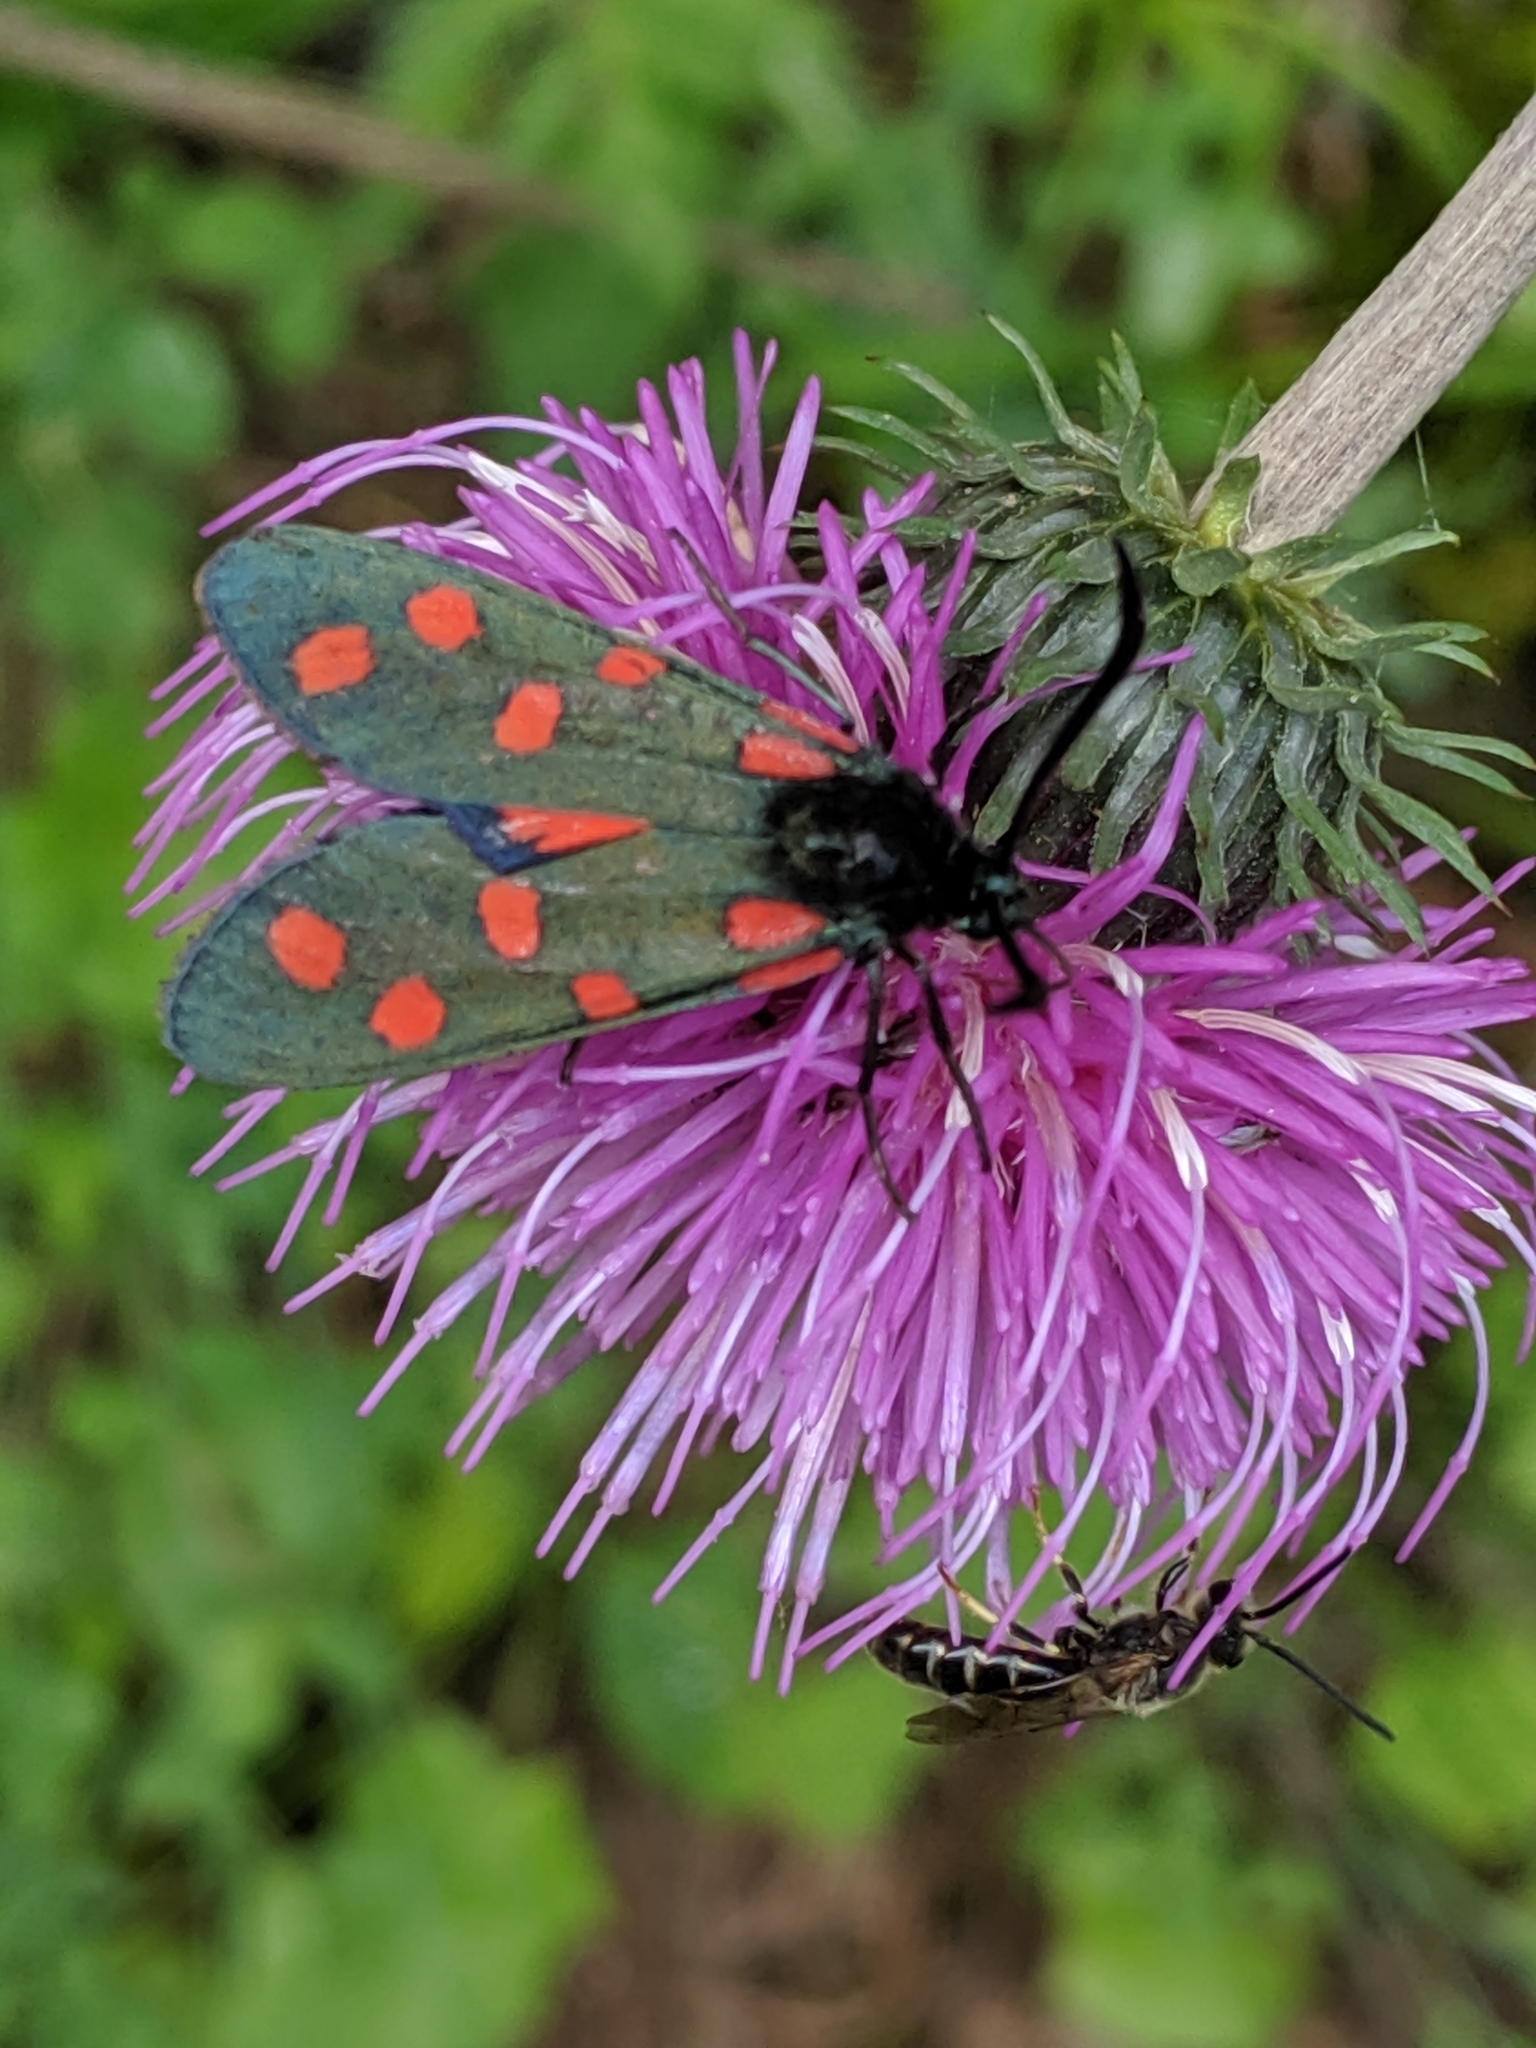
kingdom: Plantae
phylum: Tracheophyta
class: Magnoliopsida
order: Asterales
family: Asteraceae
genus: Carduus
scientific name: Carduus defloratus
